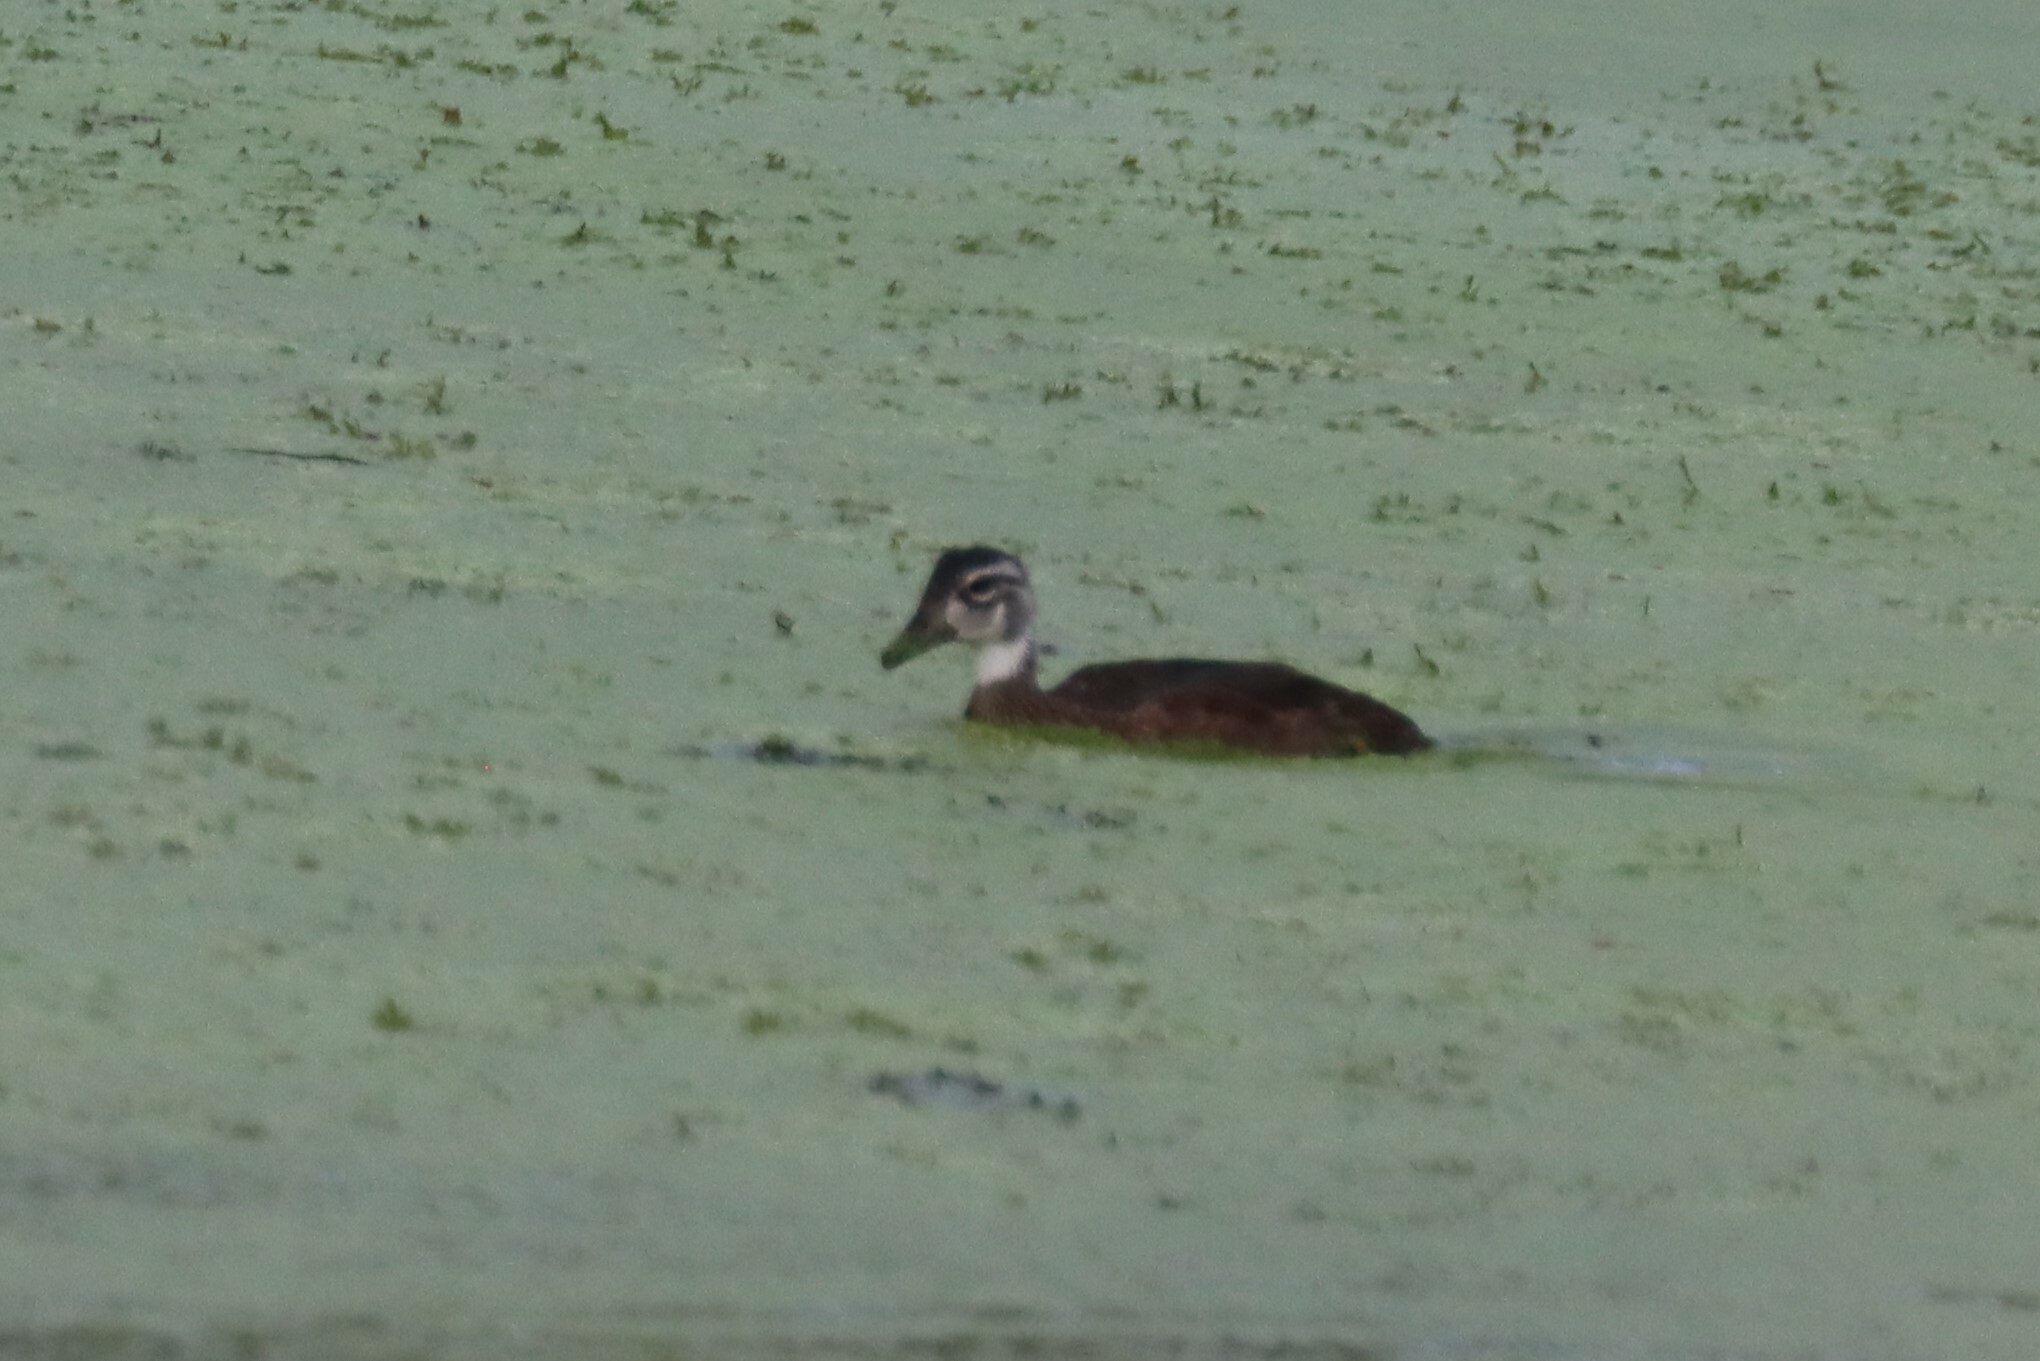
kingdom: Animalia
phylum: Chordata
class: Aves
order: Anseriformes
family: Anatidae
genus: Aix
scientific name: Aix sponsa
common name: Wood duck
